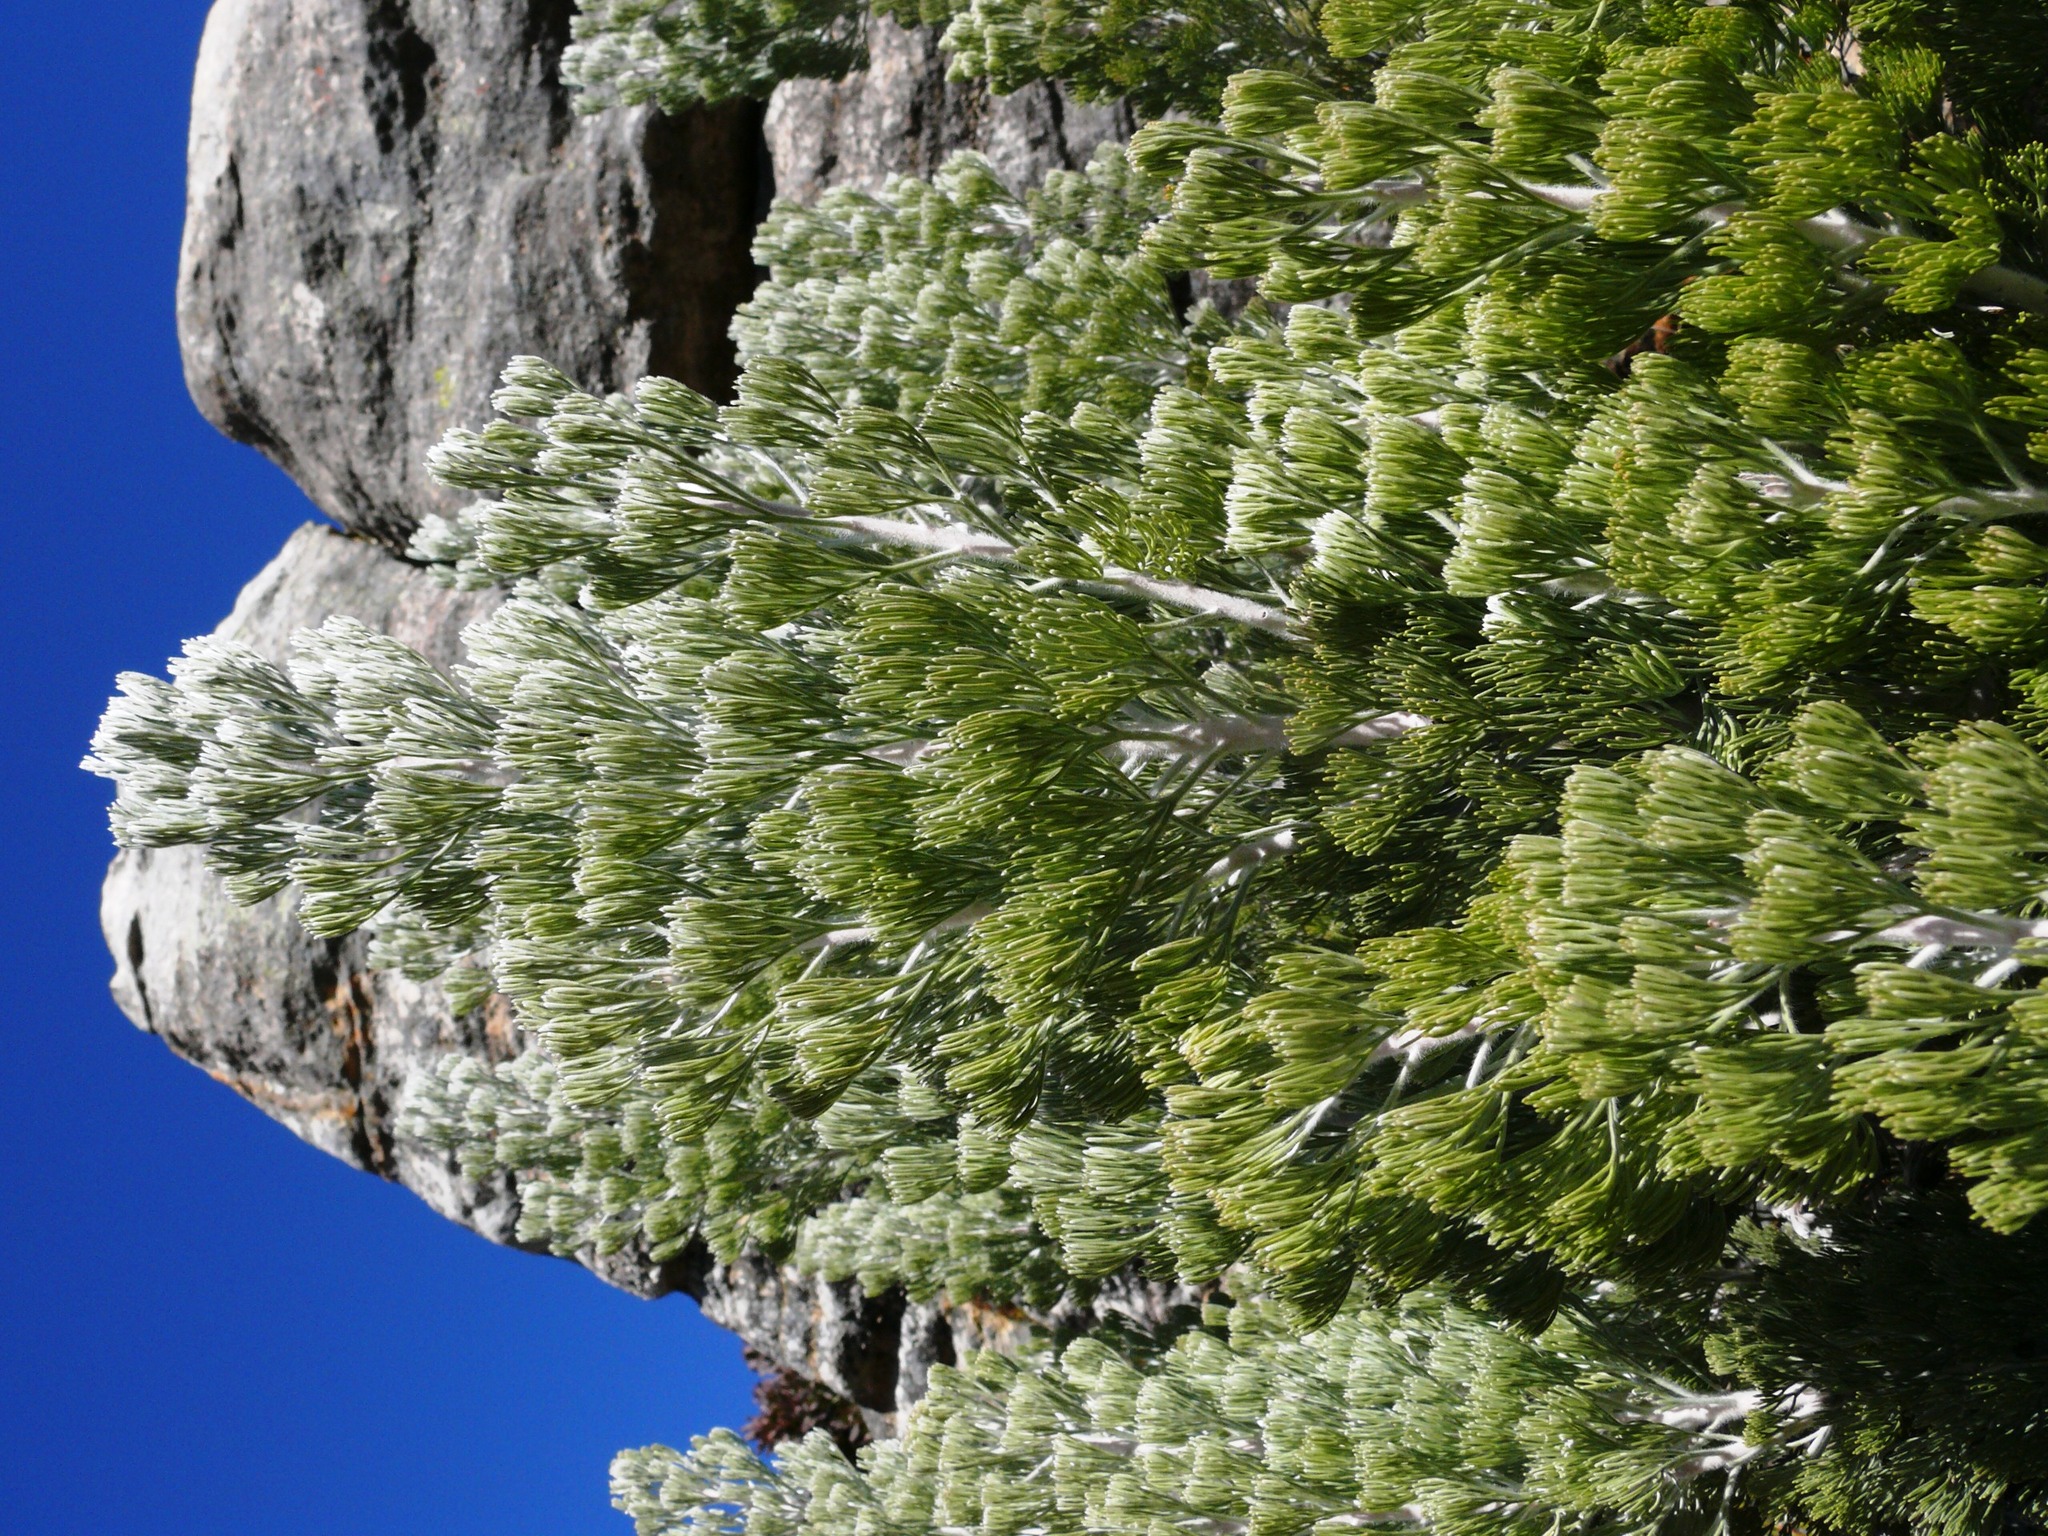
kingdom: Plantae
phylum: Tracheophyta
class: Magnoliopsida
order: Proteales
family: Proteaceae
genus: Paranomus
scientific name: Paranomus tomentosus
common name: Hairy-leaf tree sceptre
